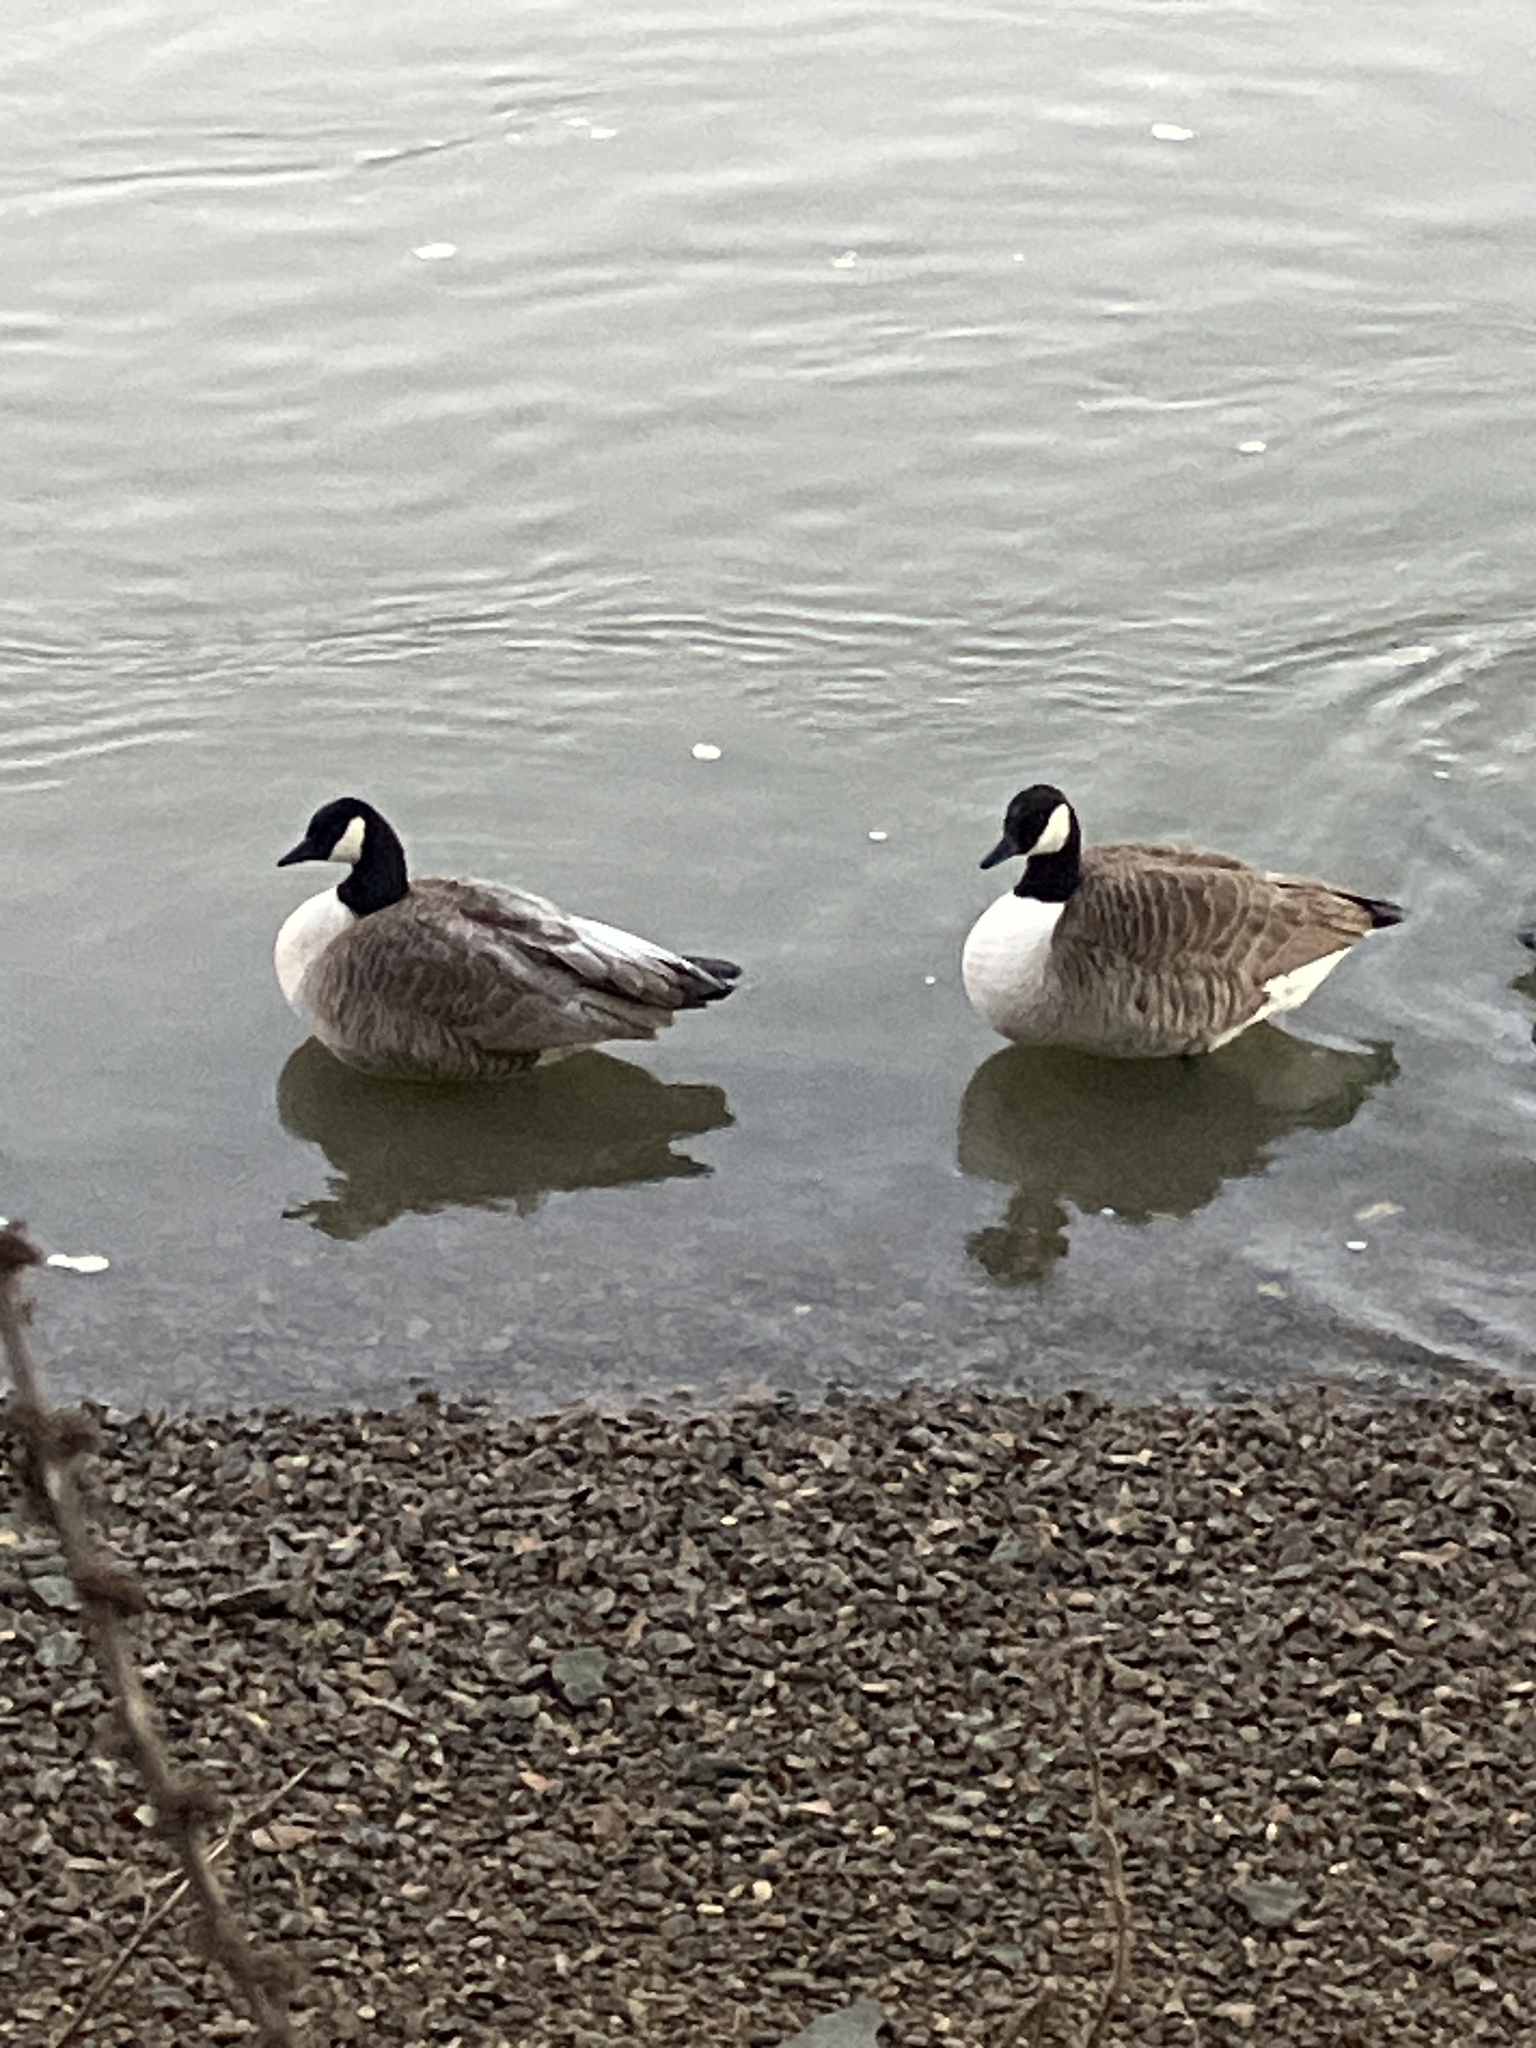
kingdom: Animalia
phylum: Chordata
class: Aves
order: Anseriformes
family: Anatidae
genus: Branta
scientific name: Branta canadensis
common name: Canada goose
